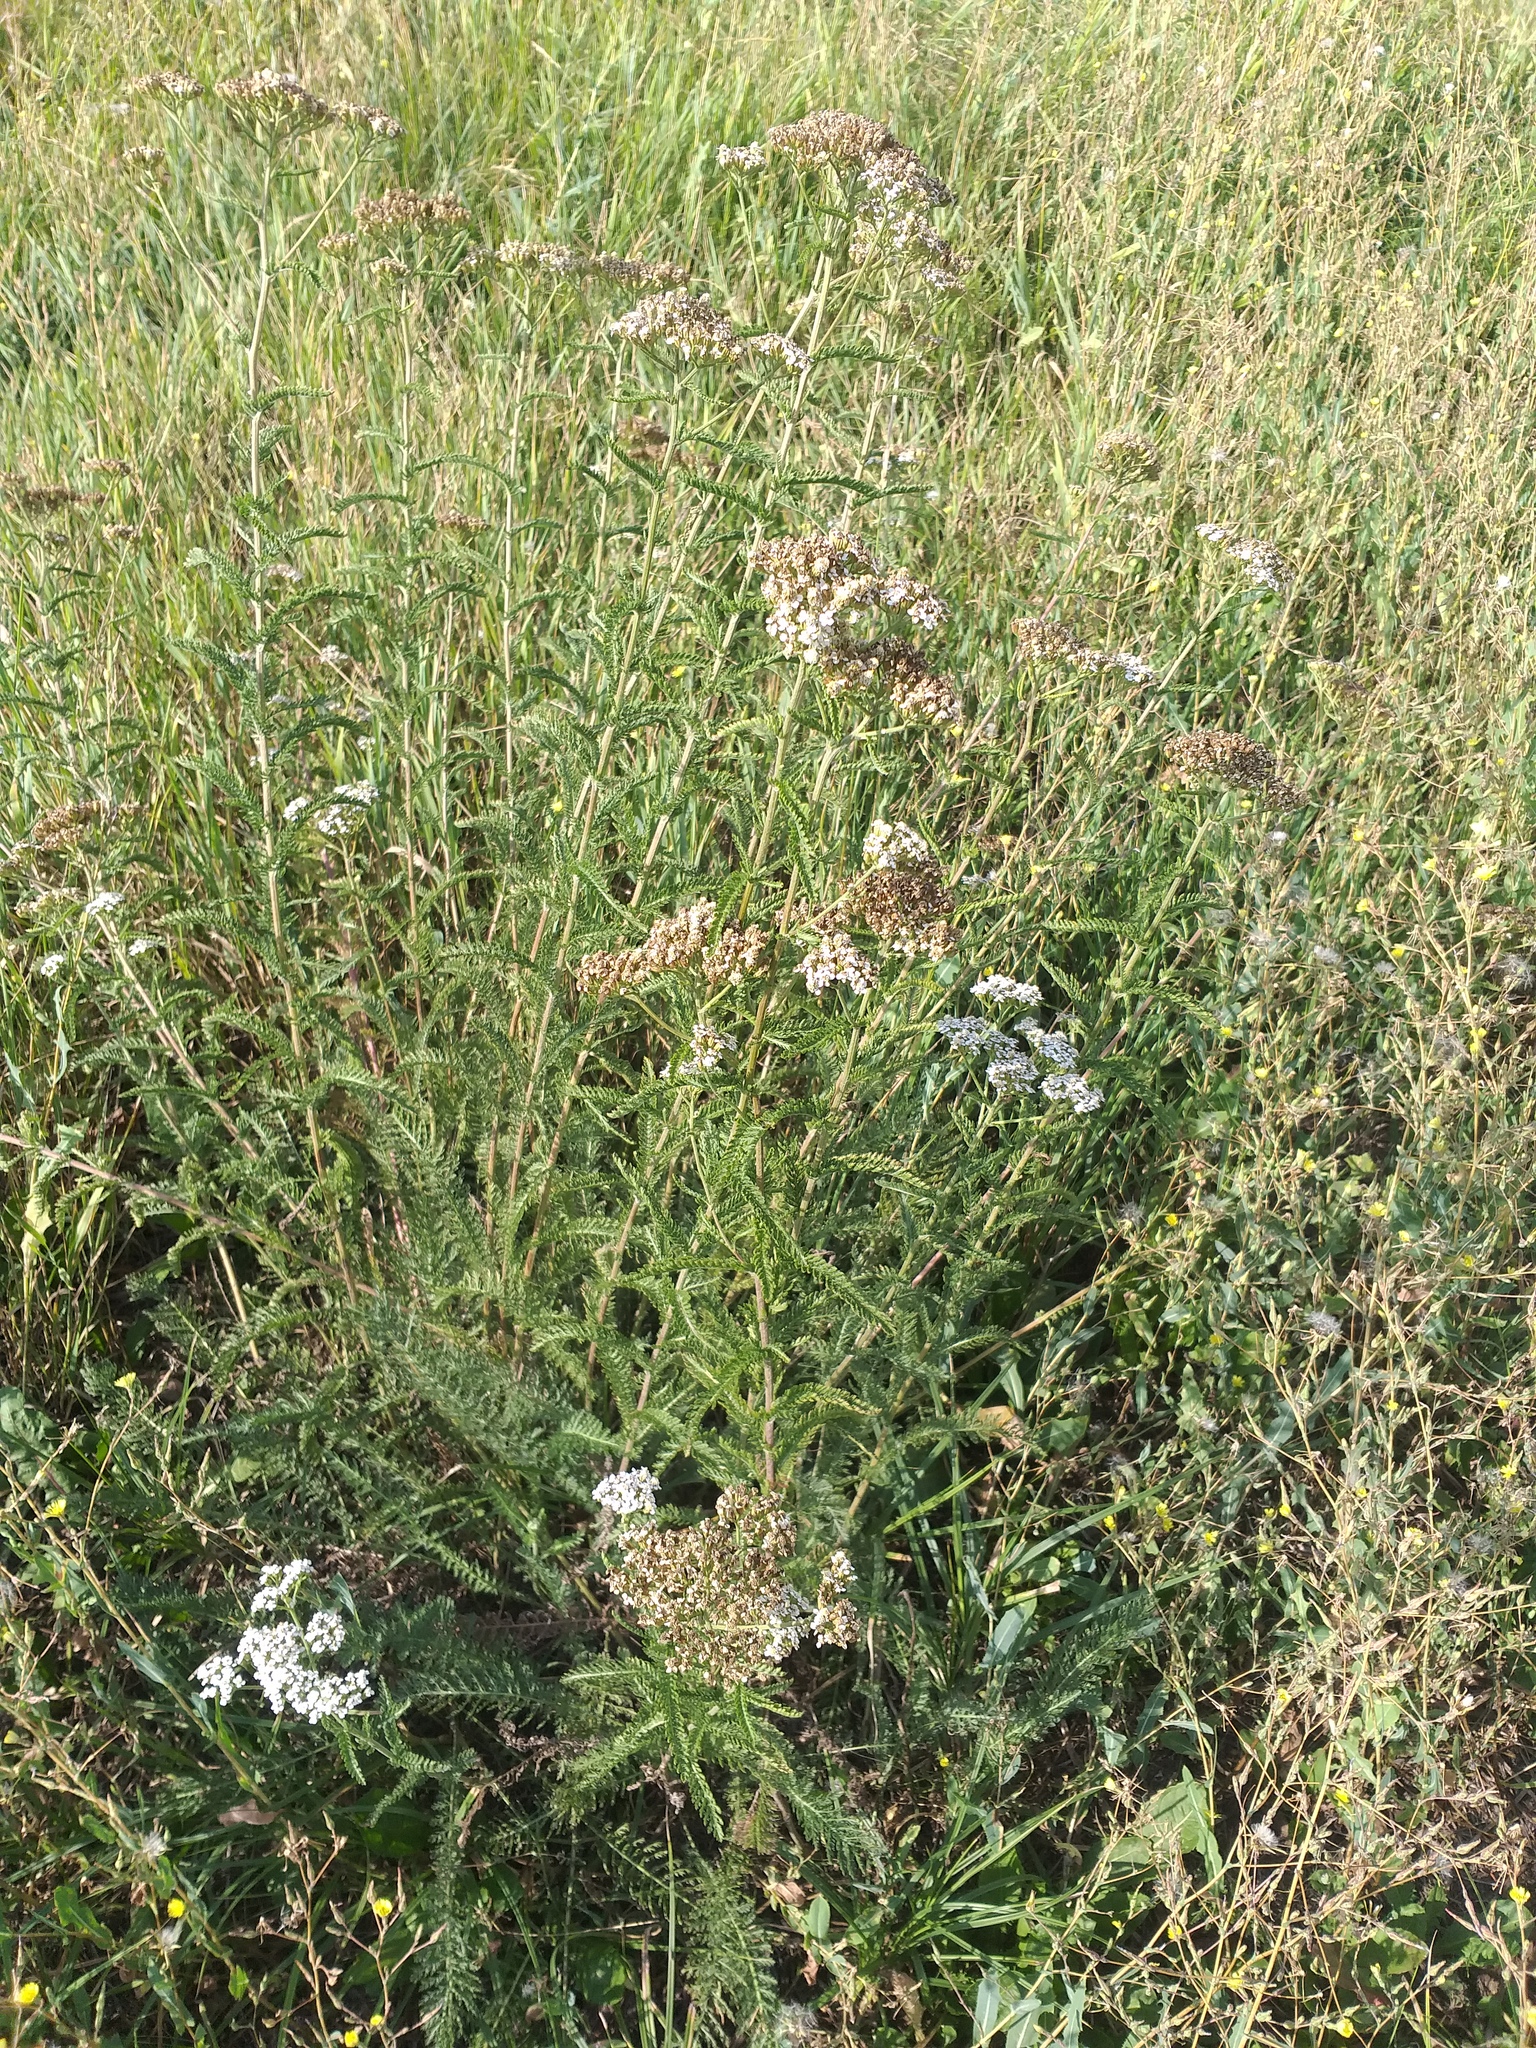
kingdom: Plantae
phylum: Tracheophyta
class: Magnoliopsida
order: Asterales
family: Asteraceae
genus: Achillea
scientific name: Achillea setacea
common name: Bristly yarrow
